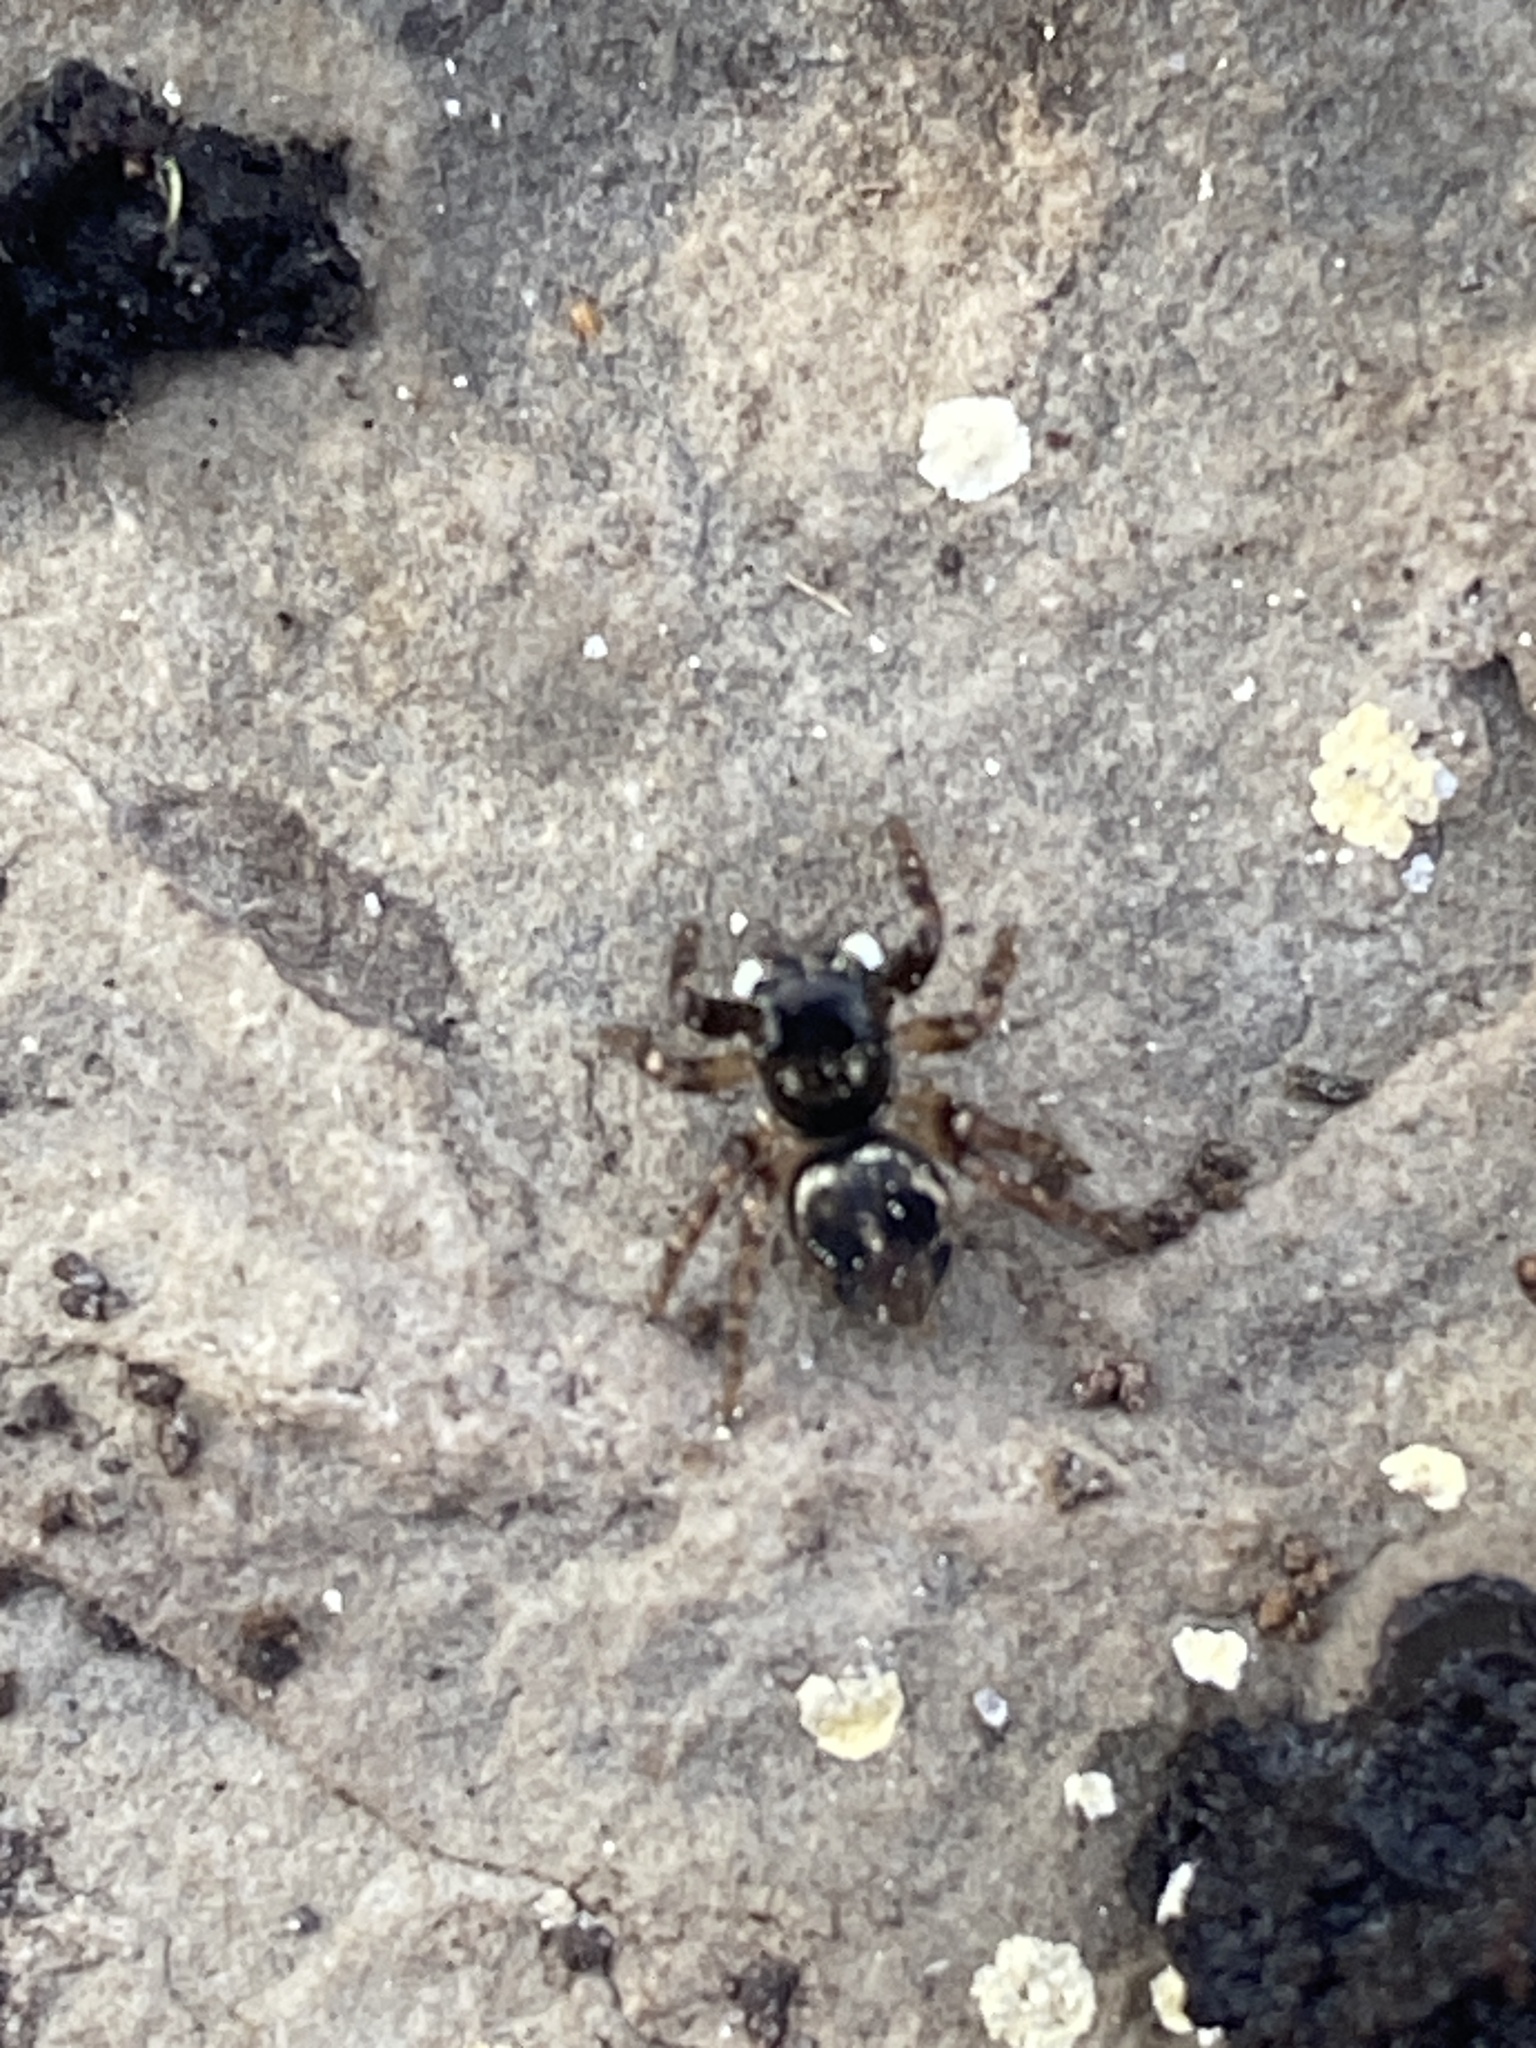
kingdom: Animalia
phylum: Arthropoda
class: Arachnida
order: Araneae
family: Salticidae
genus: Anasaitis
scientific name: Anasaitis canosa
